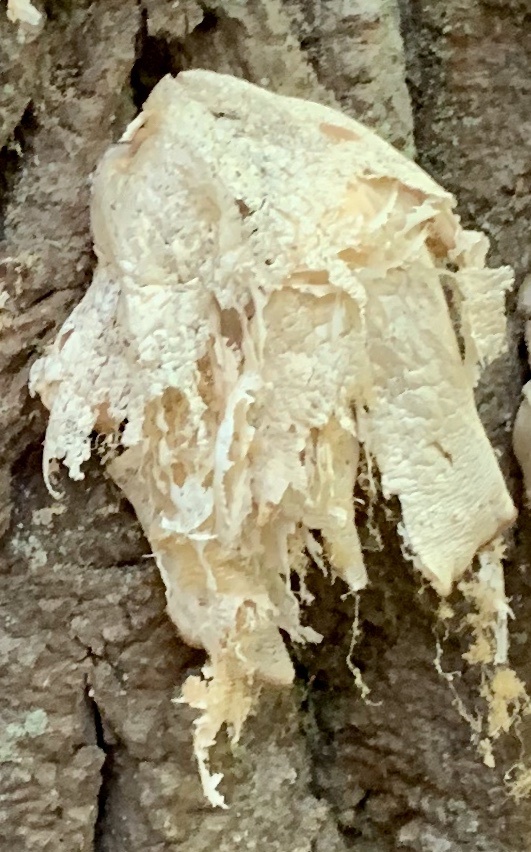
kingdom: Fungi
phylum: Basidiomycota
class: Agaricomycetes
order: Agaricales
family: Pleurotaceae
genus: Pleurotus
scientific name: Pleurotus populinus
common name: Aspen oyster mushroom
